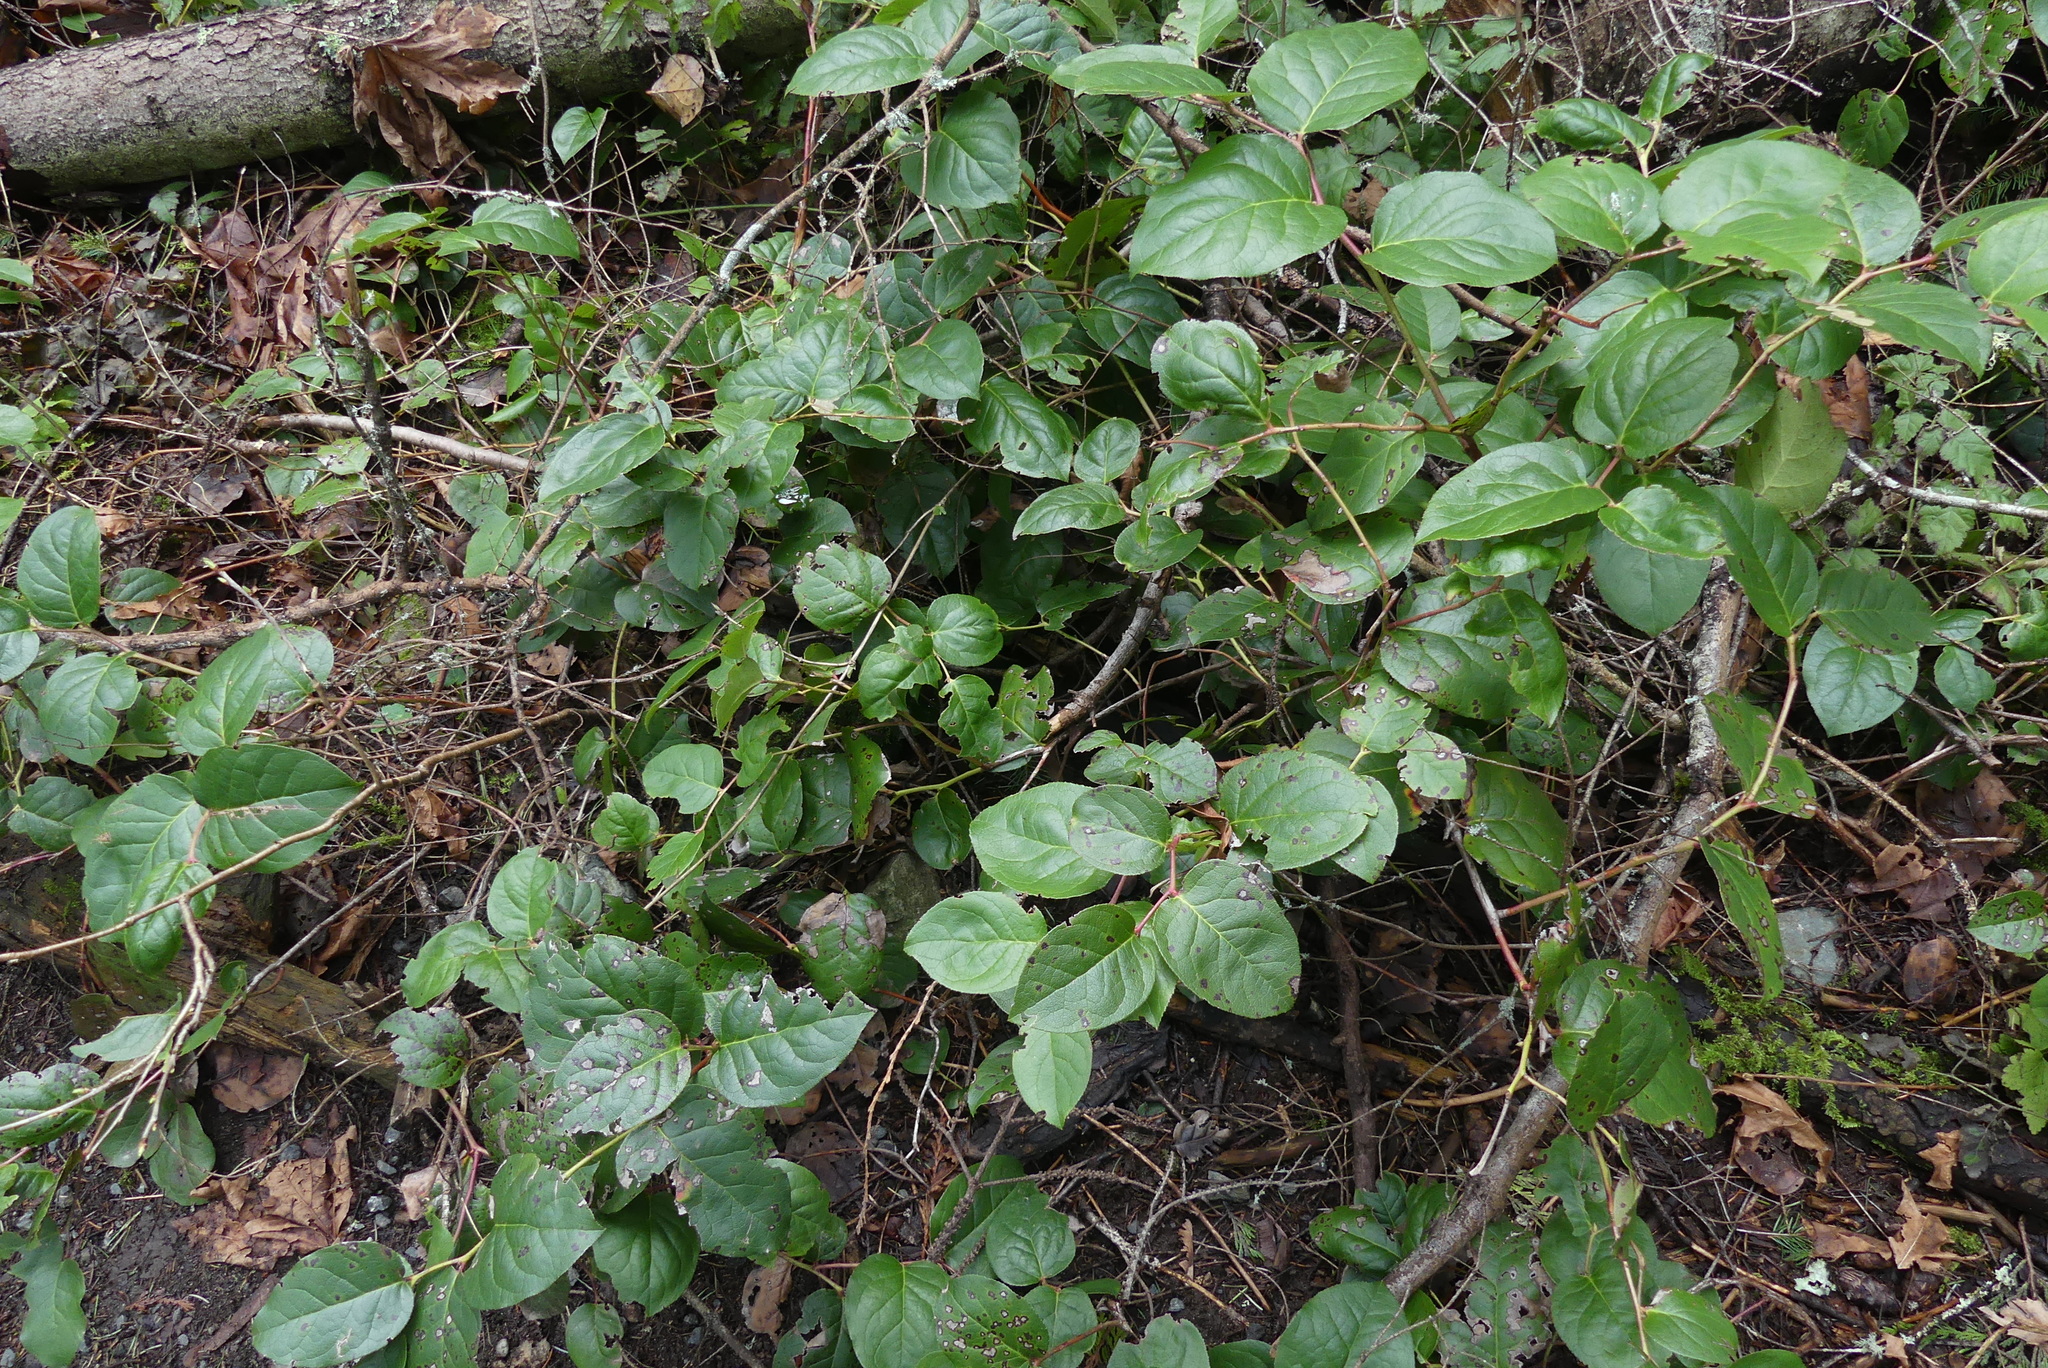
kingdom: Plantae
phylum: Tracheophyta
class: Magnoliopsida
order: Ericales
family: Ericaceae
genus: Gaultheria
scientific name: Gaultheria shallon
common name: Shallon
